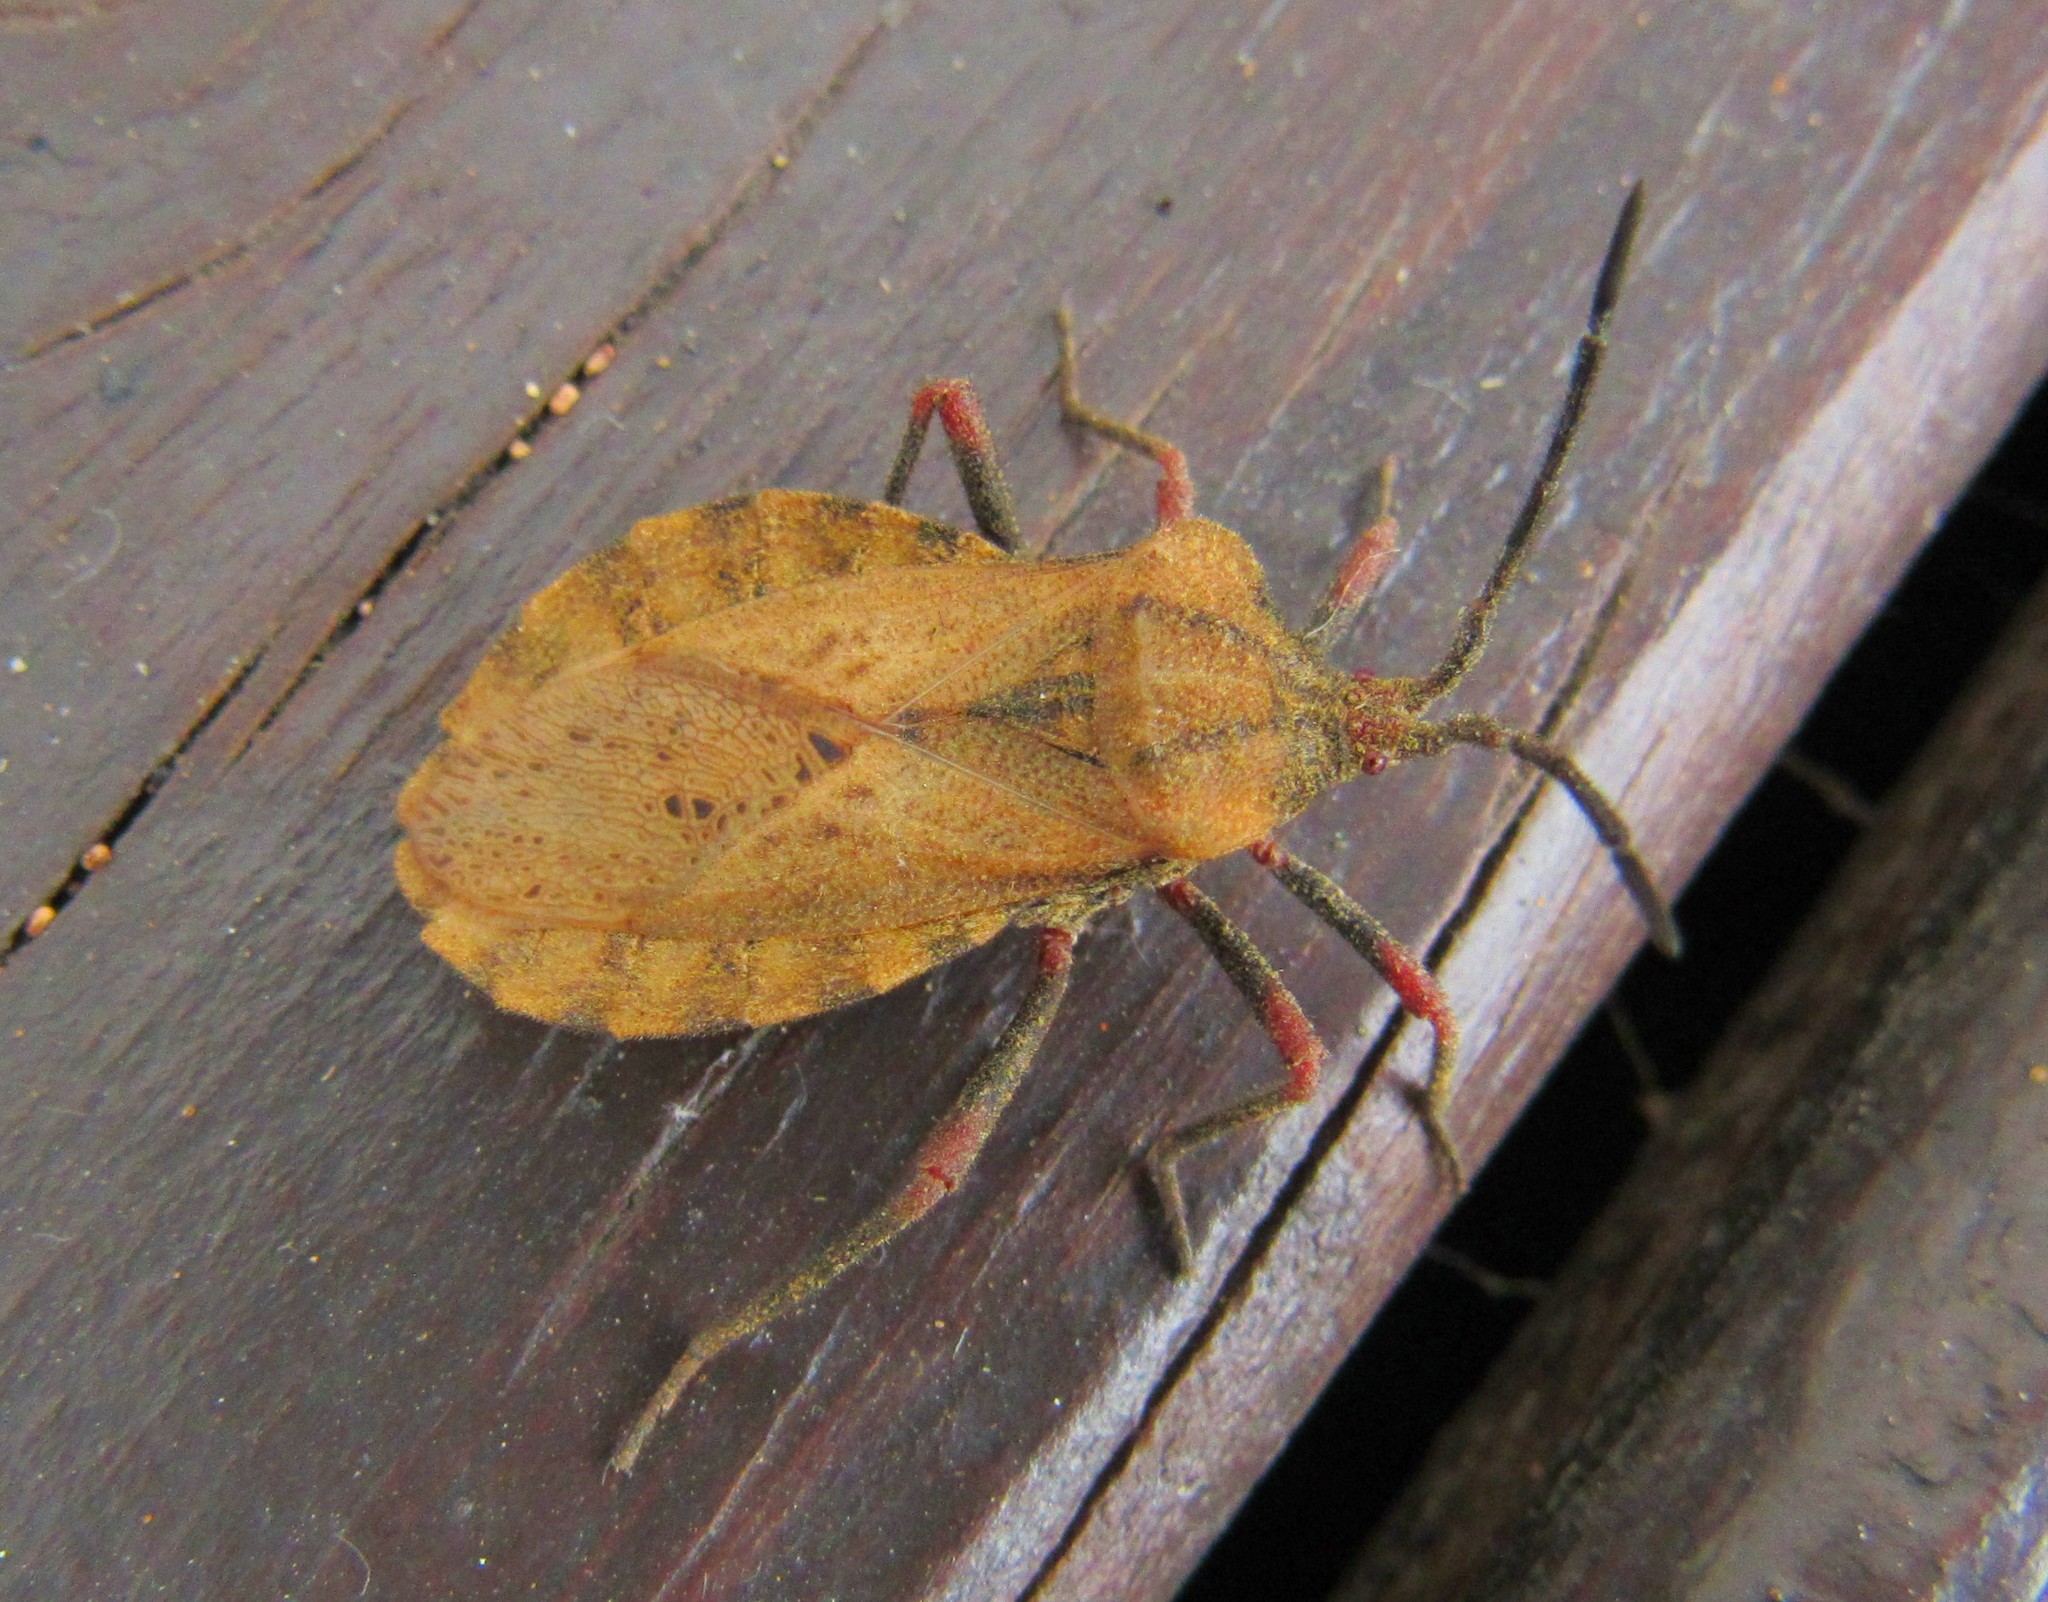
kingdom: Animalia
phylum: Arthropoda
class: Insecta
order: Hemiptera
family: Coreidae
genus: Spartocera
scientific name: Spartocera fusca
